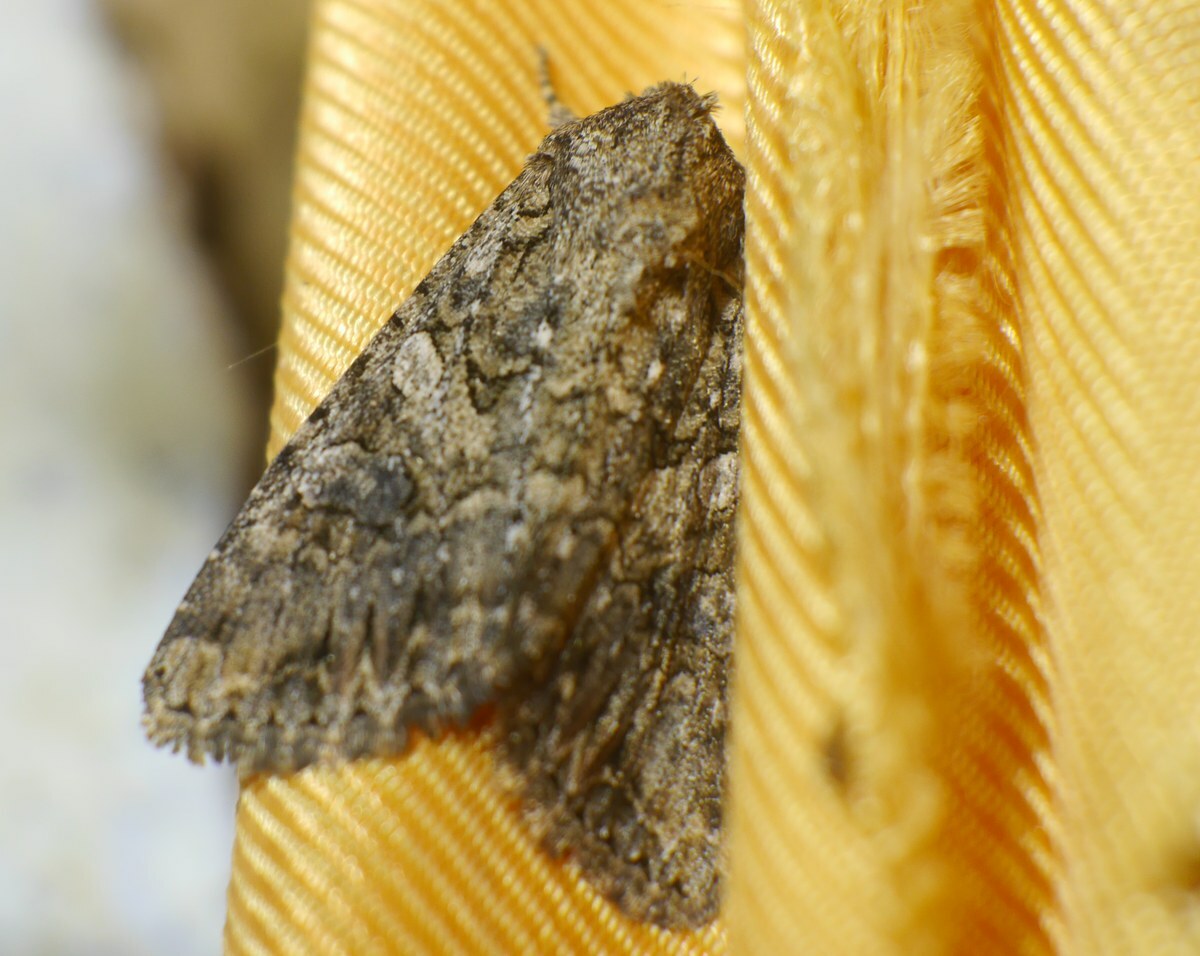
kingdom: Animalia
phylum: Arthropoda
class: Insecta
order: Lepidoptera
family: Noctuidae
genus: Anarta
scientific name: Anarta trifolii
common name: Clover cutworm moth
